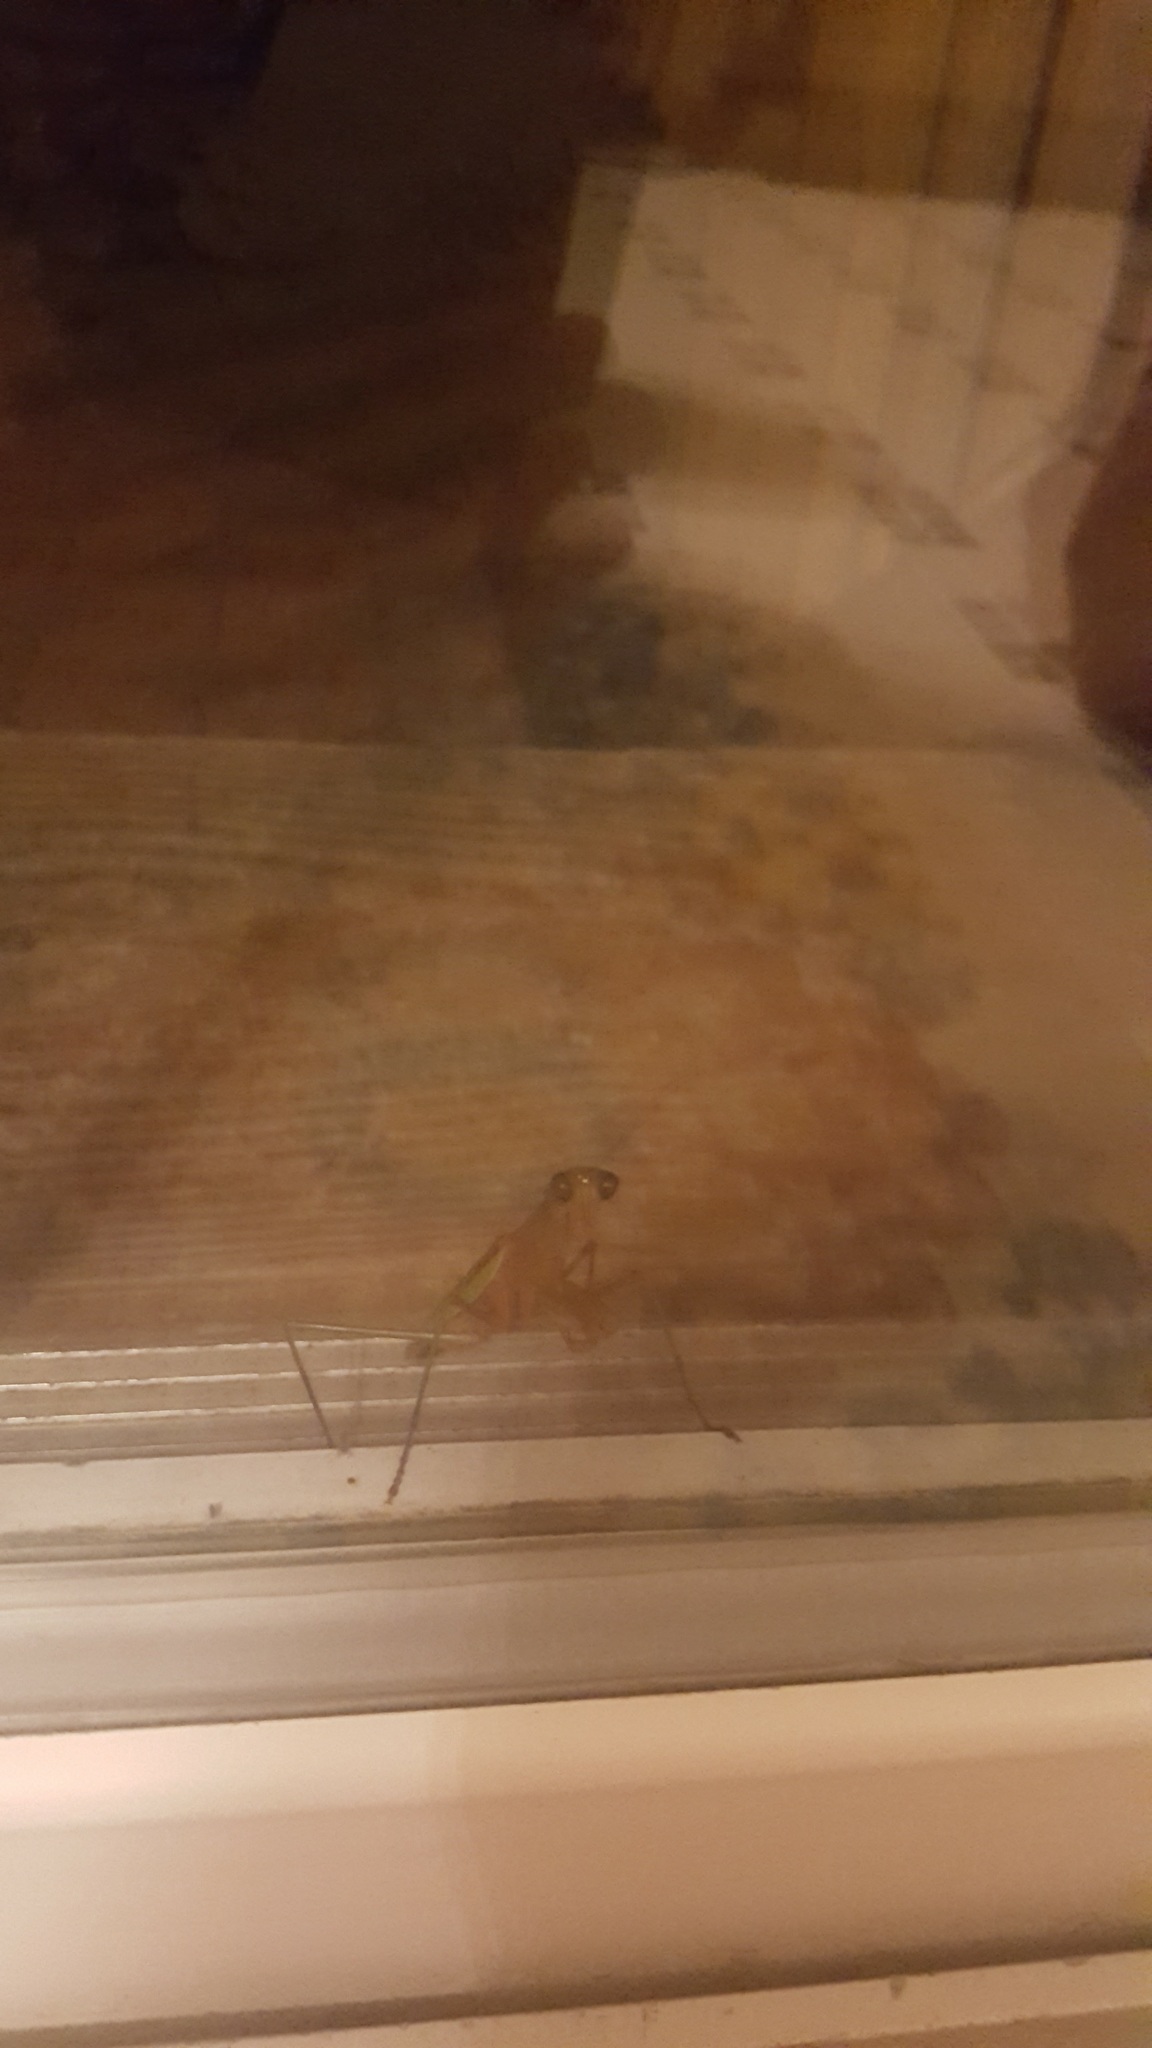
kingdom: Animalia
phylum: Arthropoda
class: Insecta
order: Mantodea
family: Mantidae
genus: Tenodera
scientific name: Tenodera sinensis
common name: Chinese mantis
